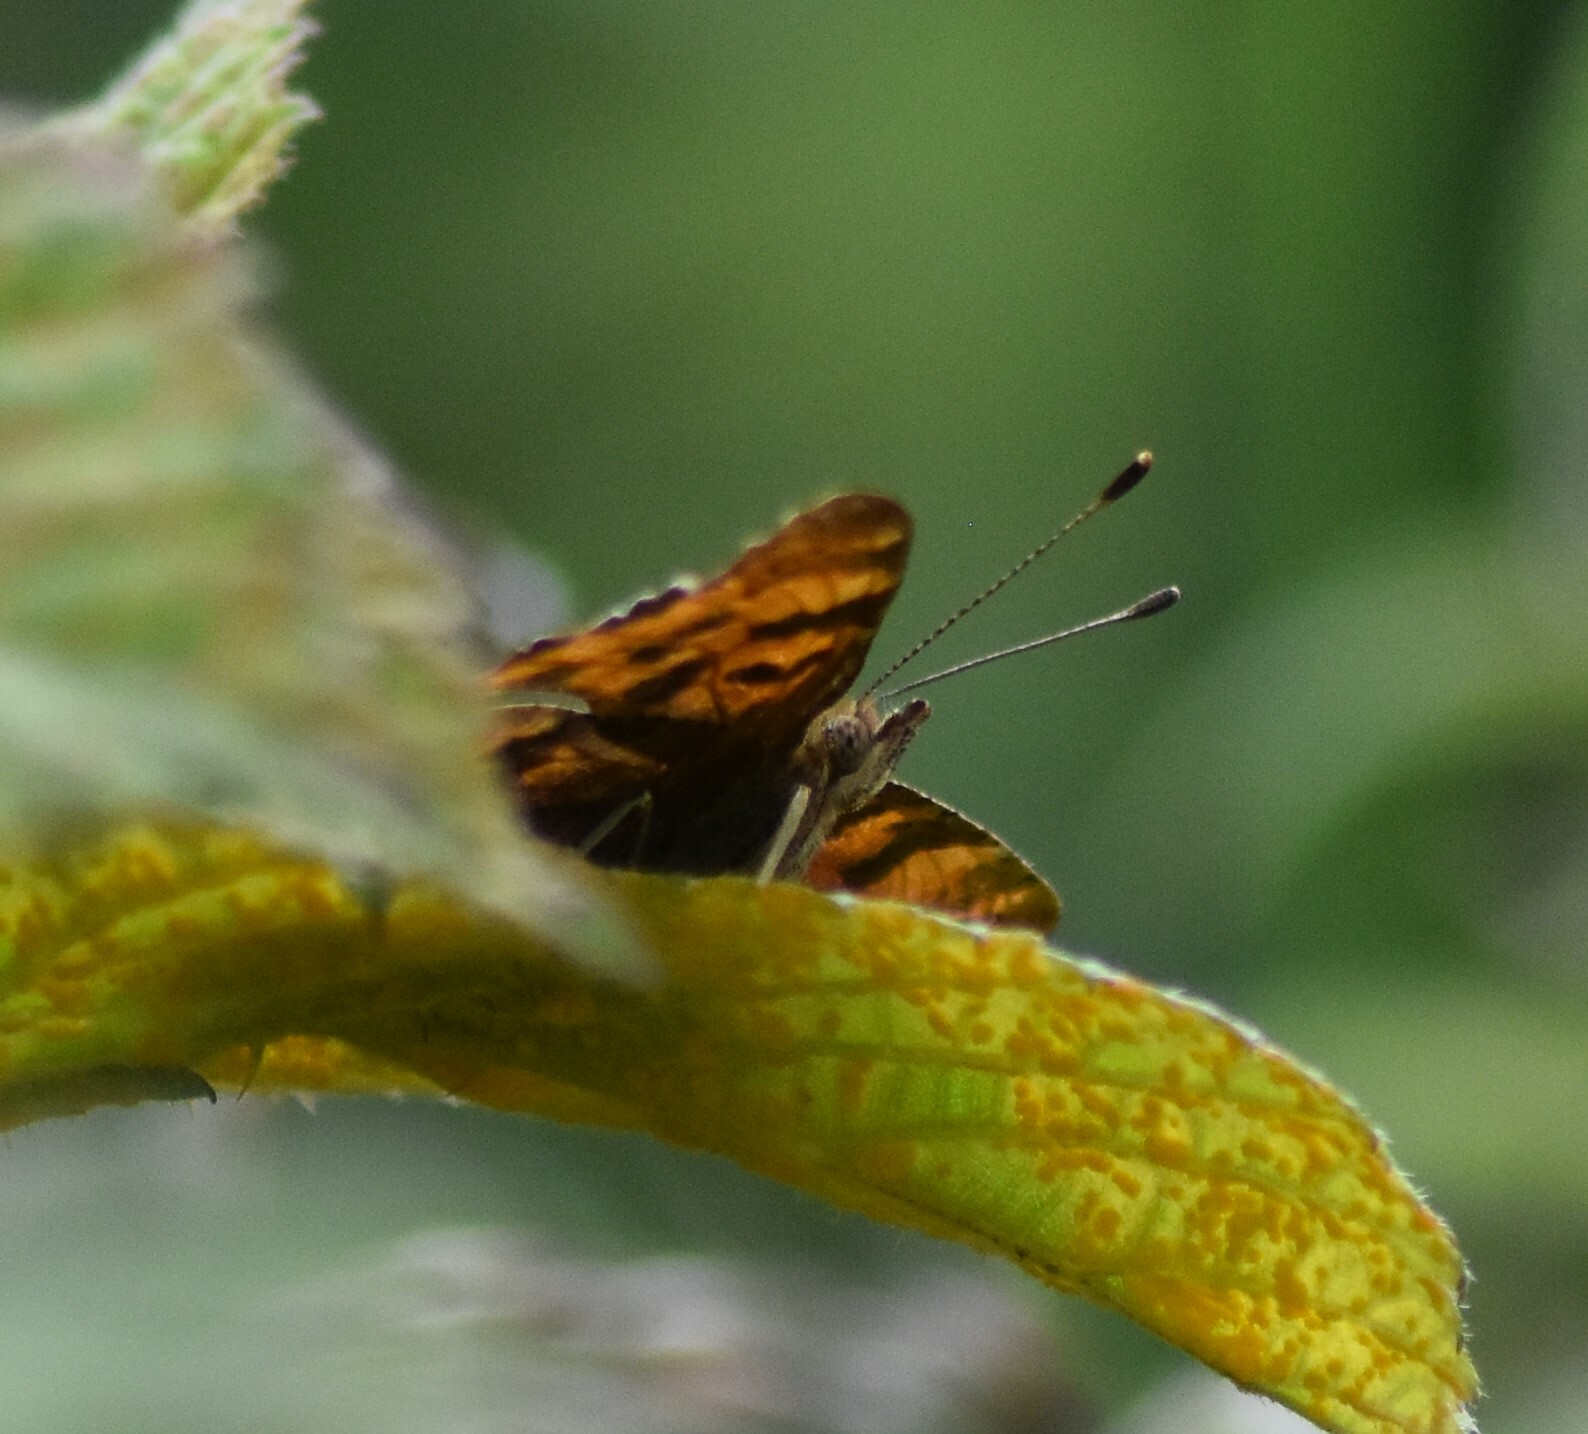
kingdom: Animalia
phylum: Arthropoda
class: Insecta
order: Lepidoptera
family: Nymphalidae
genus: Polygonia
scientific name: Polygonia c-album
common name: Comma
